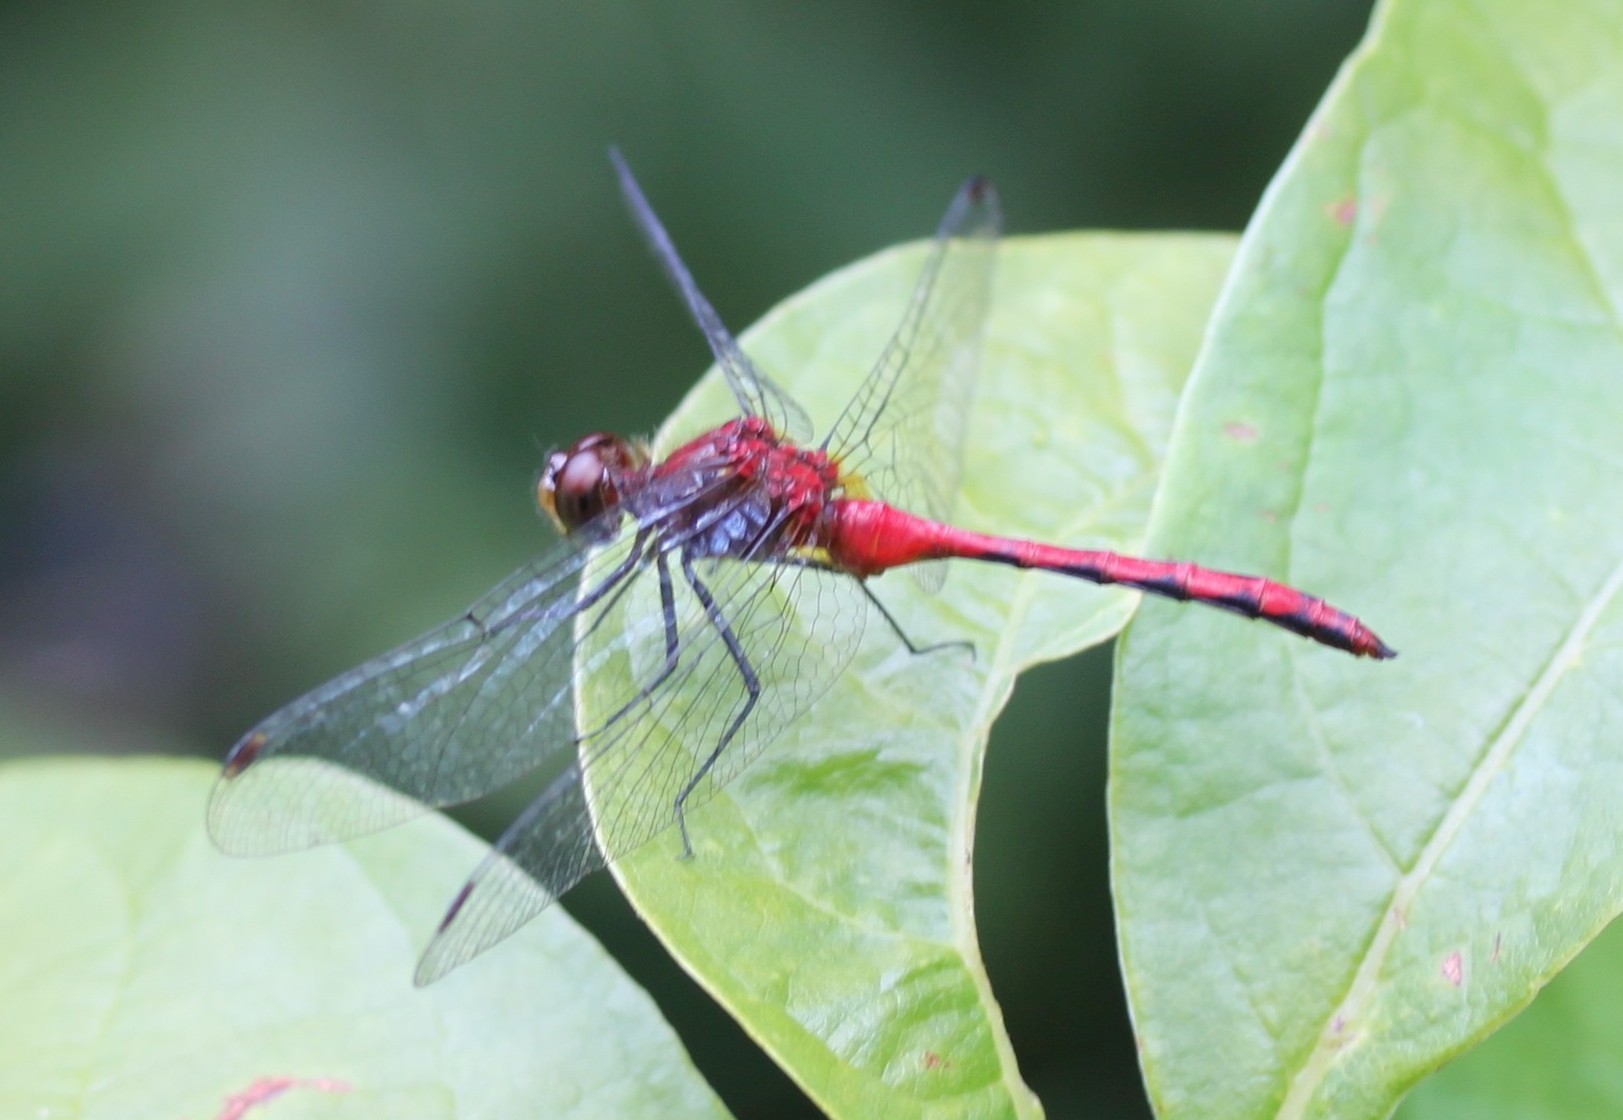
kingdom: Animalia
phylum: Arthropoda
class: Insecta
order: Odonata
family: Libellulidae
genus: Sympetrum
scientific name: Sympetrum
